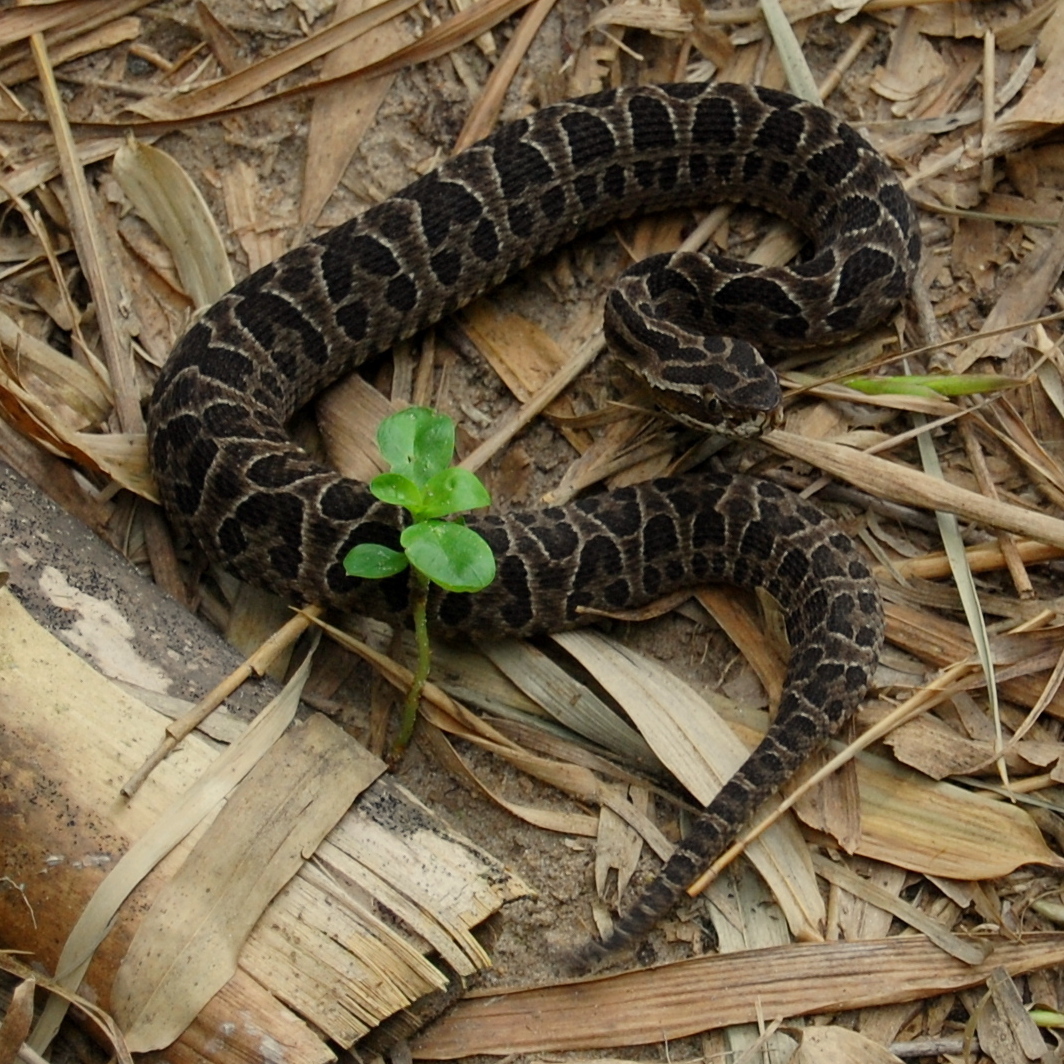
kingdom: Animalia
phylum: Chordata
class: Squamata
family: Viperidae
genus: Bothrops
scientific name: Bothrops alternatus
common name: Urutu
